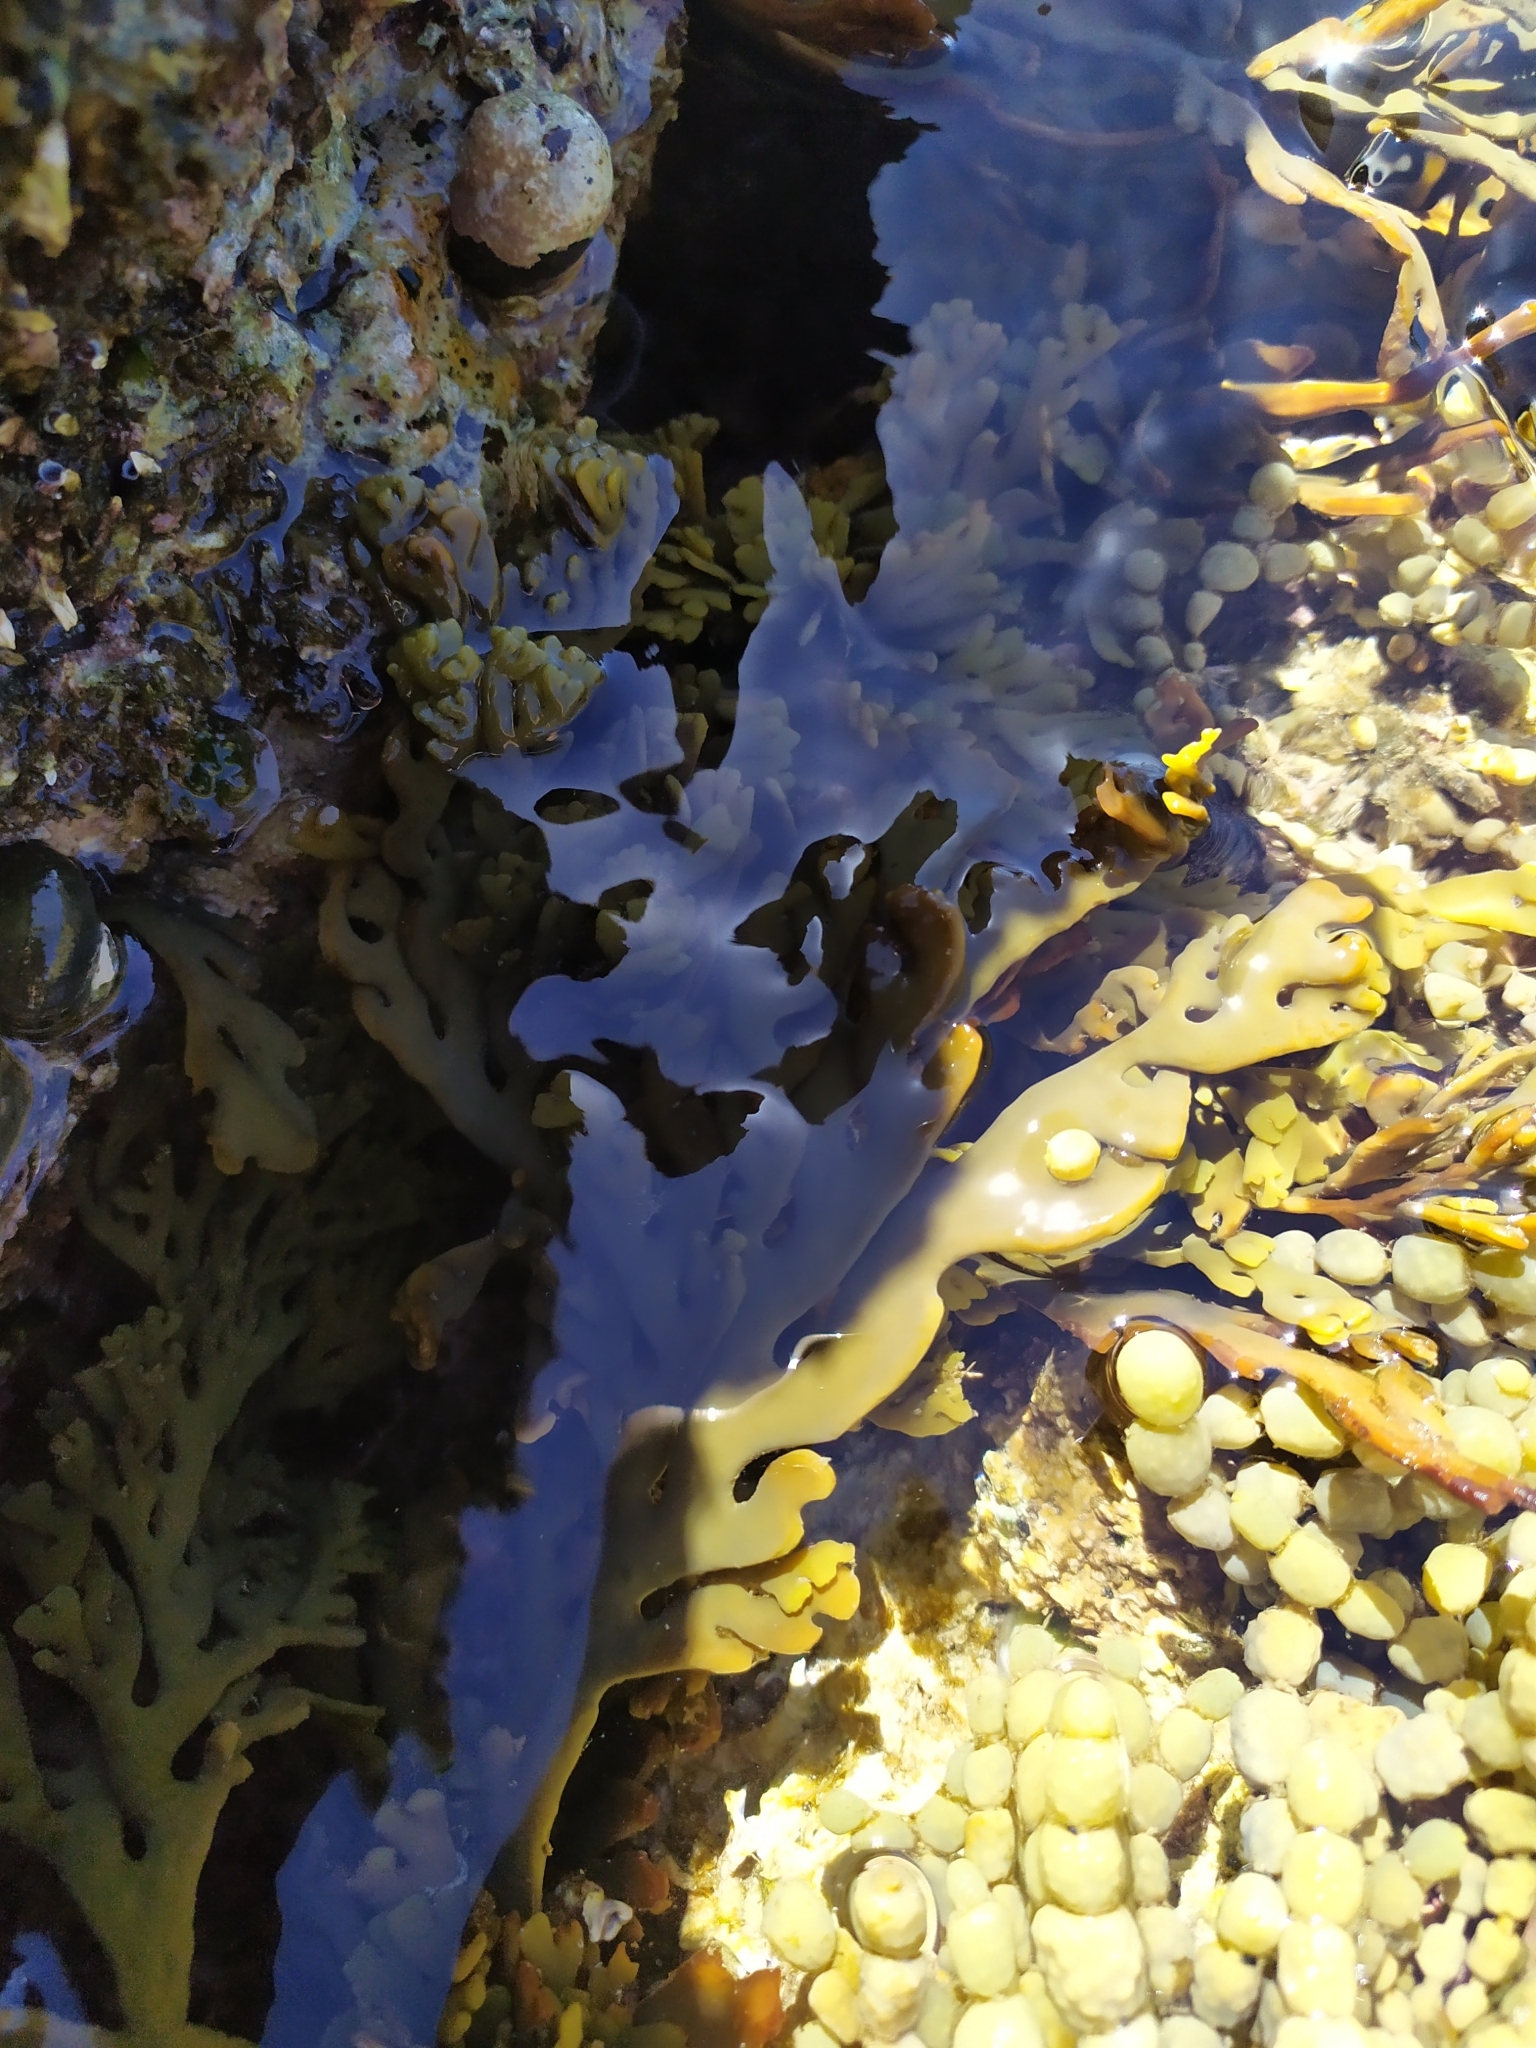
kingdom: Chromista
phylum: Ochrophyta
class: Phaeophyceae
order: Fucales
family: Xiphophoraceae
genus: Xiphophora
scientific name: Xiphophora chondrophylla
